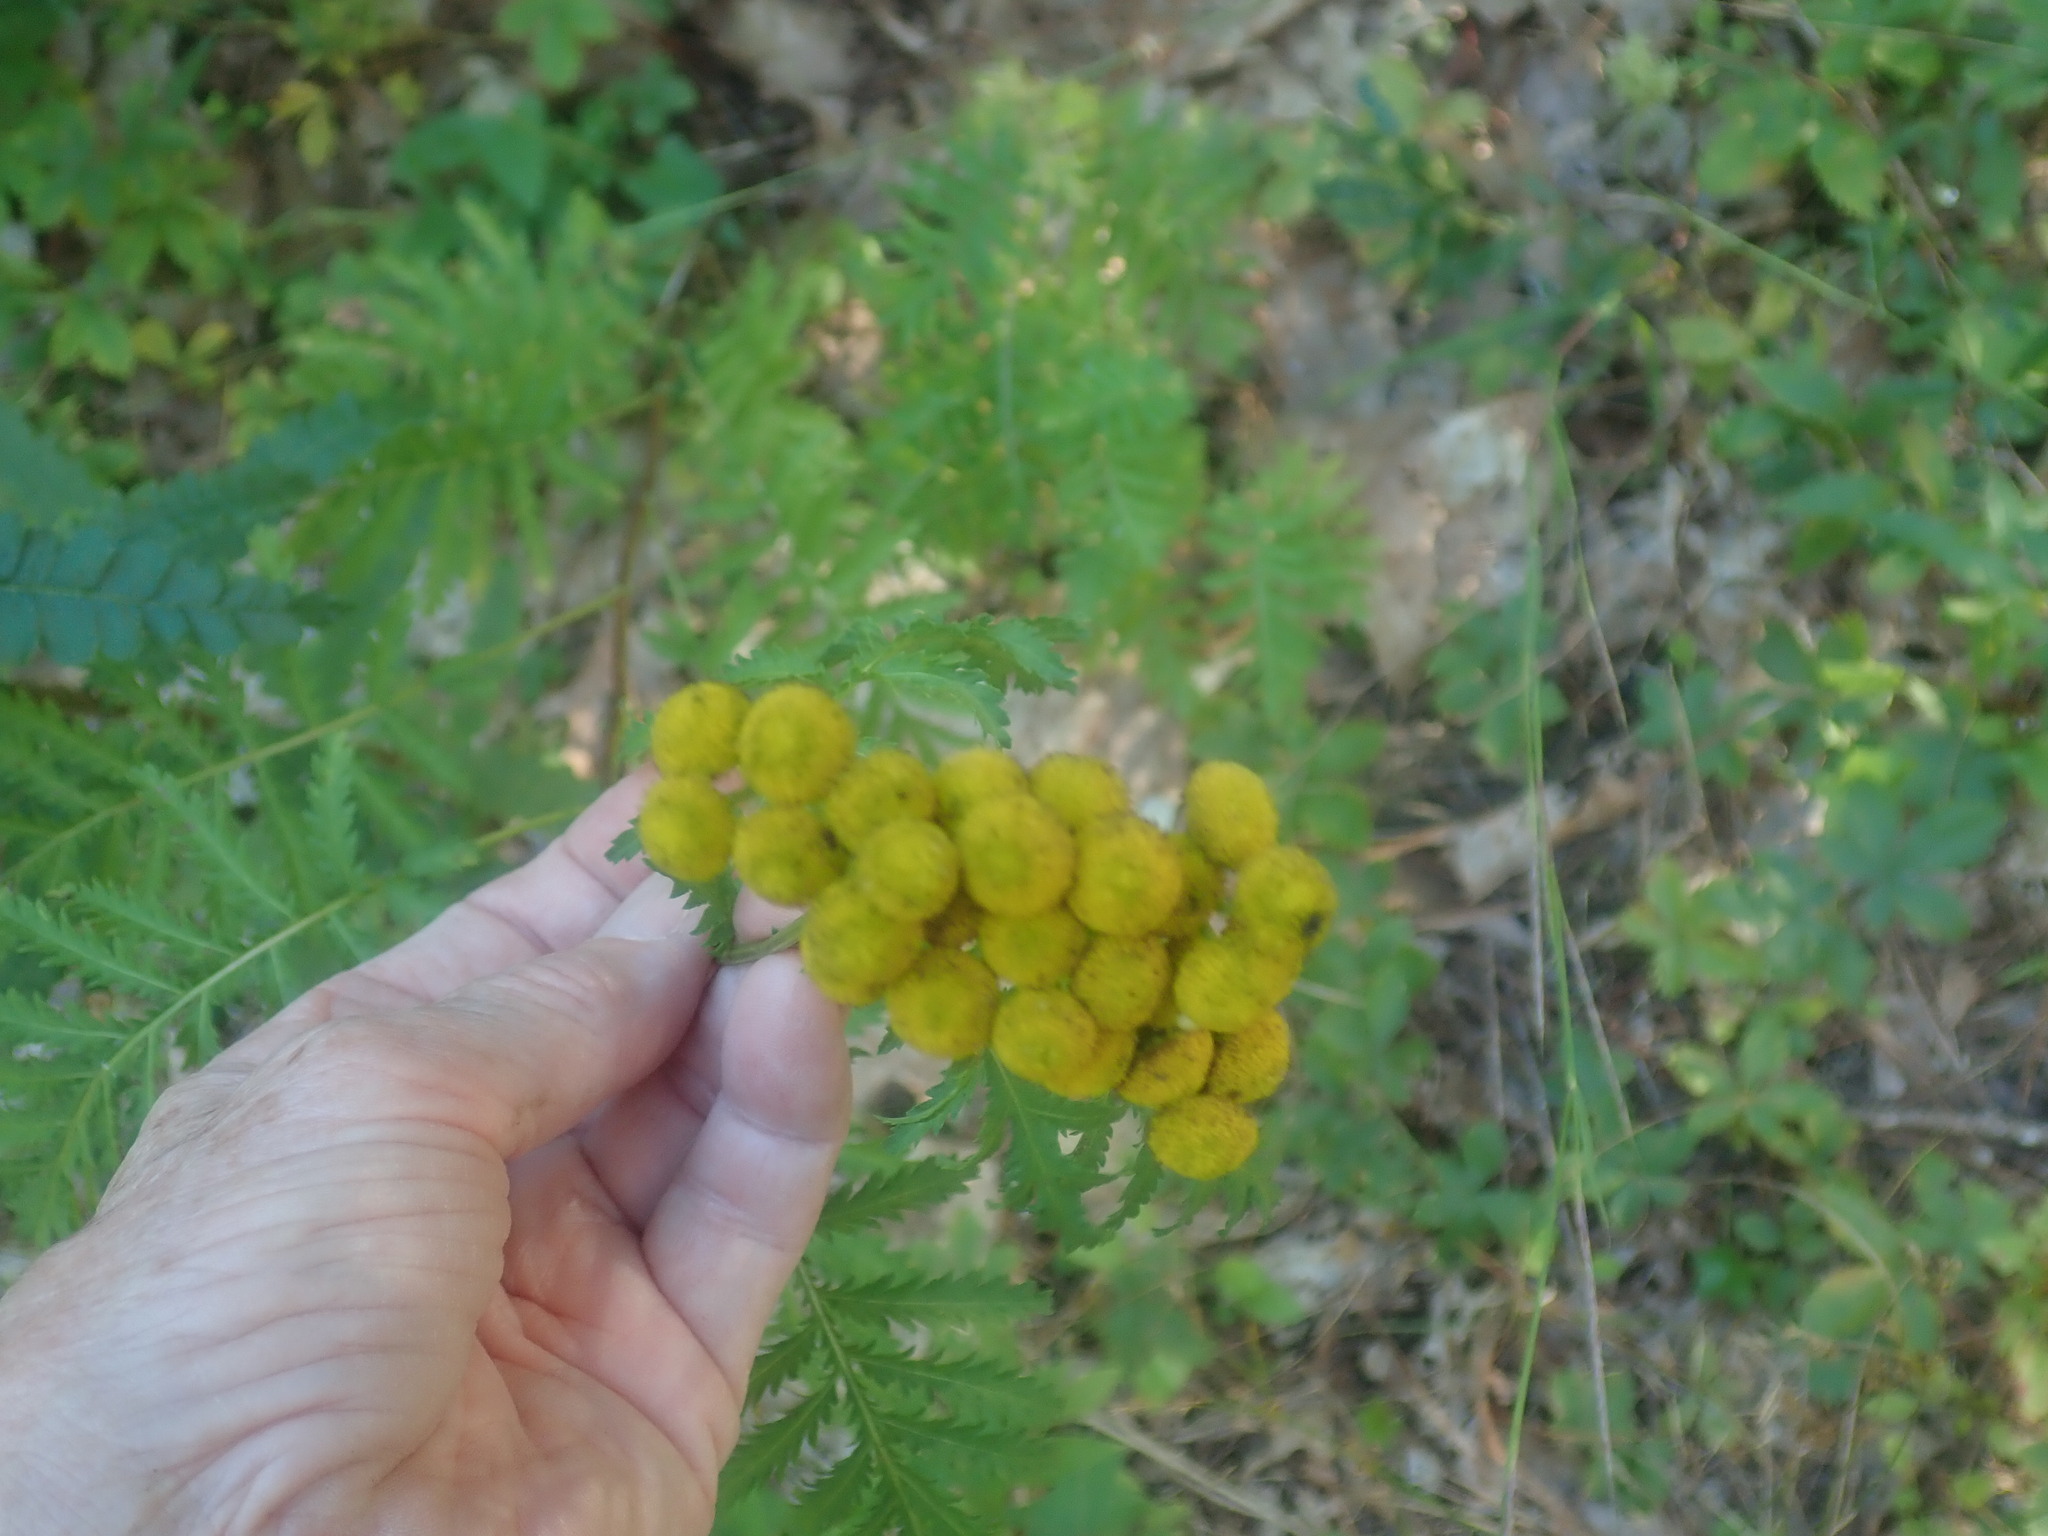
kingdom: Plantae
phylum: Tracheophyta
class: Magnoliopsida
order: Asterales
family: Asteraceae
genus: Tanacetum
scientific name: Tanacetum vulgare
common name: Common tansy
